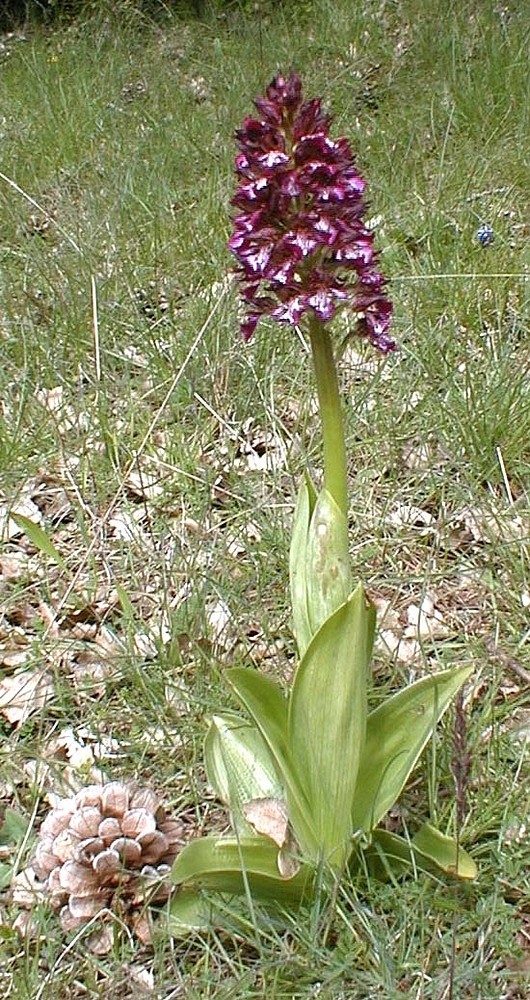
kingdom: Plantae
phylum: Tracheophyta
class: Liliopsida
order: Asparagales
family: Orchidaceae
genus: Orchis
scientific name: Orchis purpurea
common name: Lady orchid
